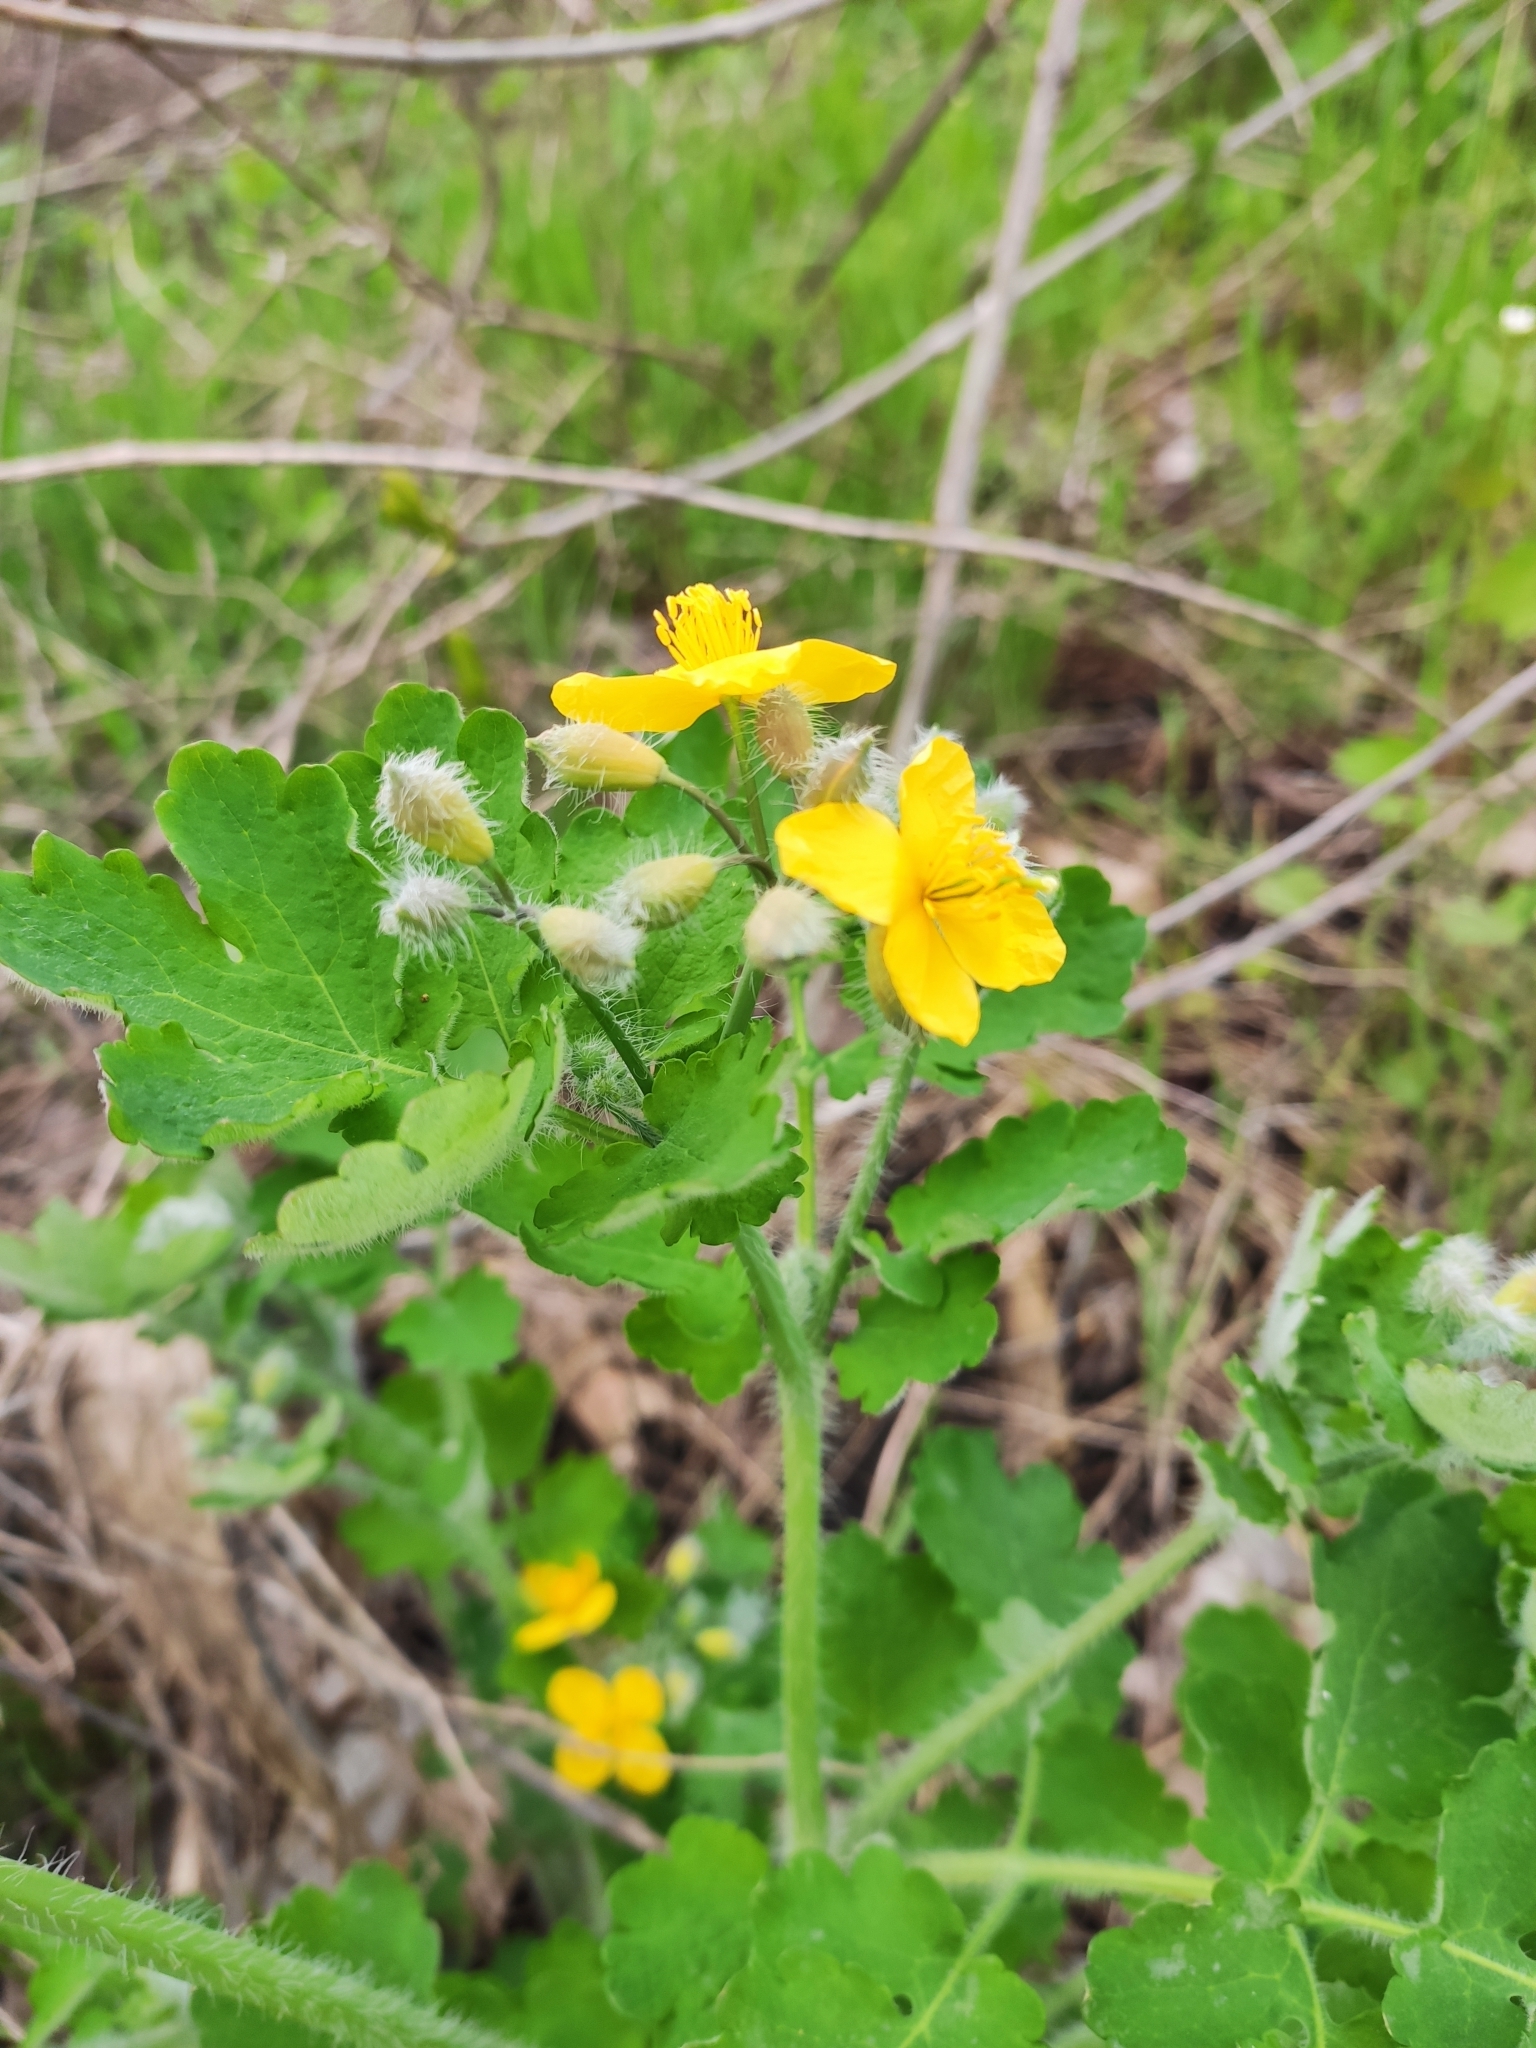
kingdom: Plantae
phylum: Tracheophyta
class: Magnoliopsida
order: Ranunculales
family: Papaveraceae
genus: Chelidonium
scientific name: Chelidonium majus
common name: Greater celandine
